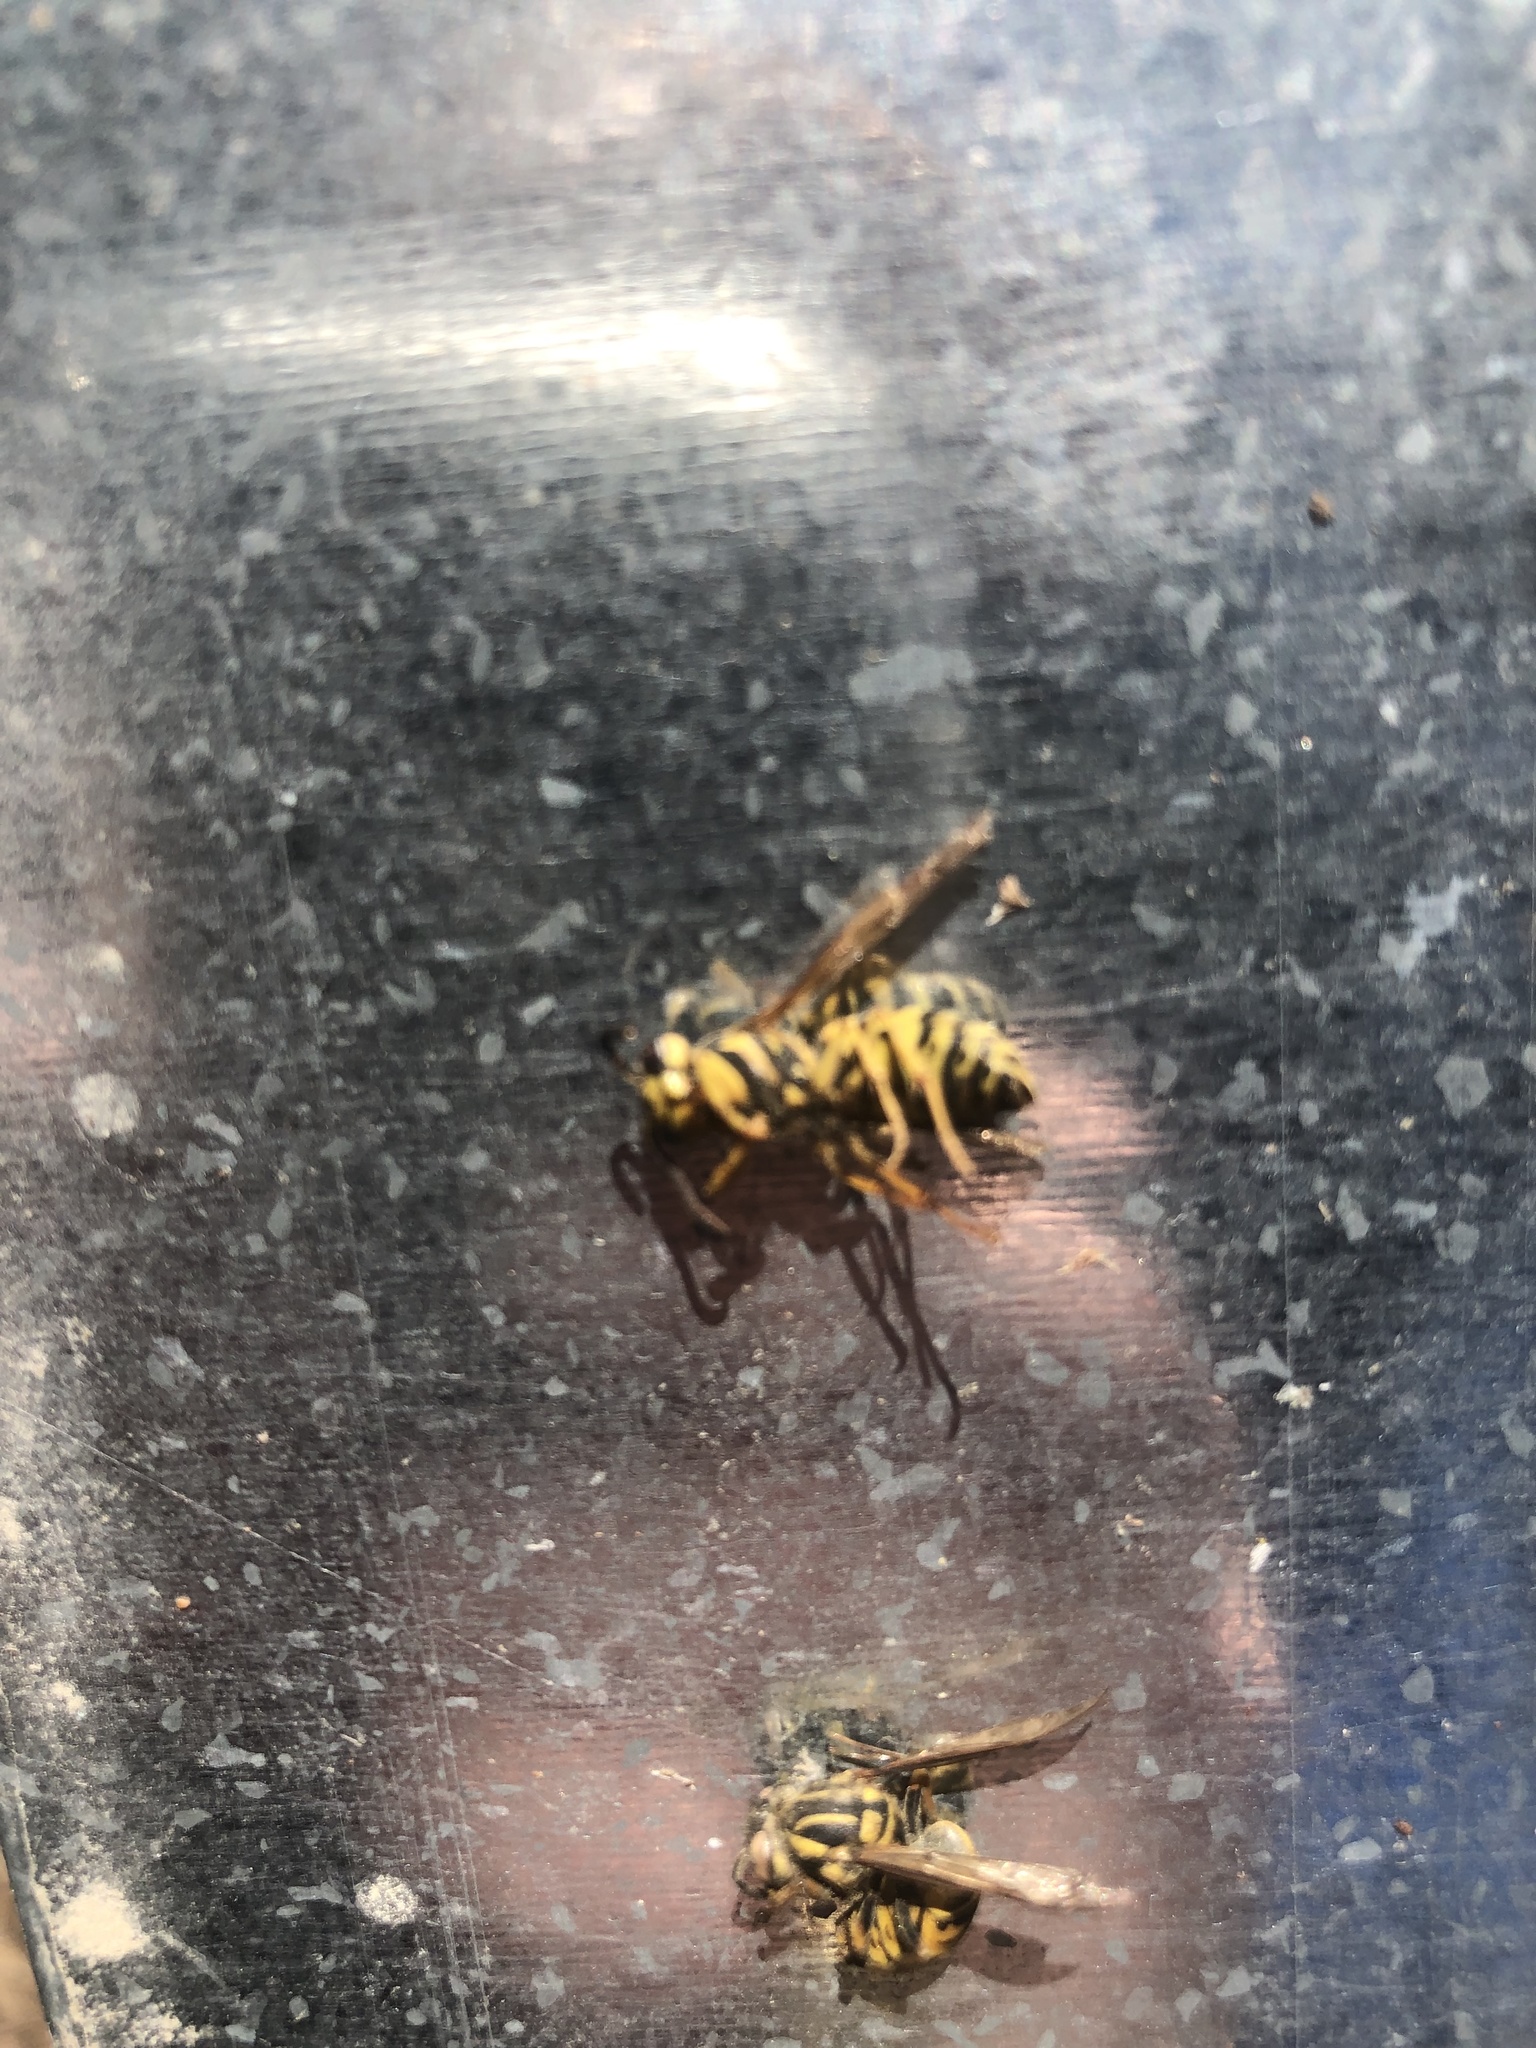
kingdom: Animalia
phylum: Arthropoda
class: Insecta
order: Hymenoptera
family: Vespidae
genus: Vespula
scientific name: Vespula squamosa
